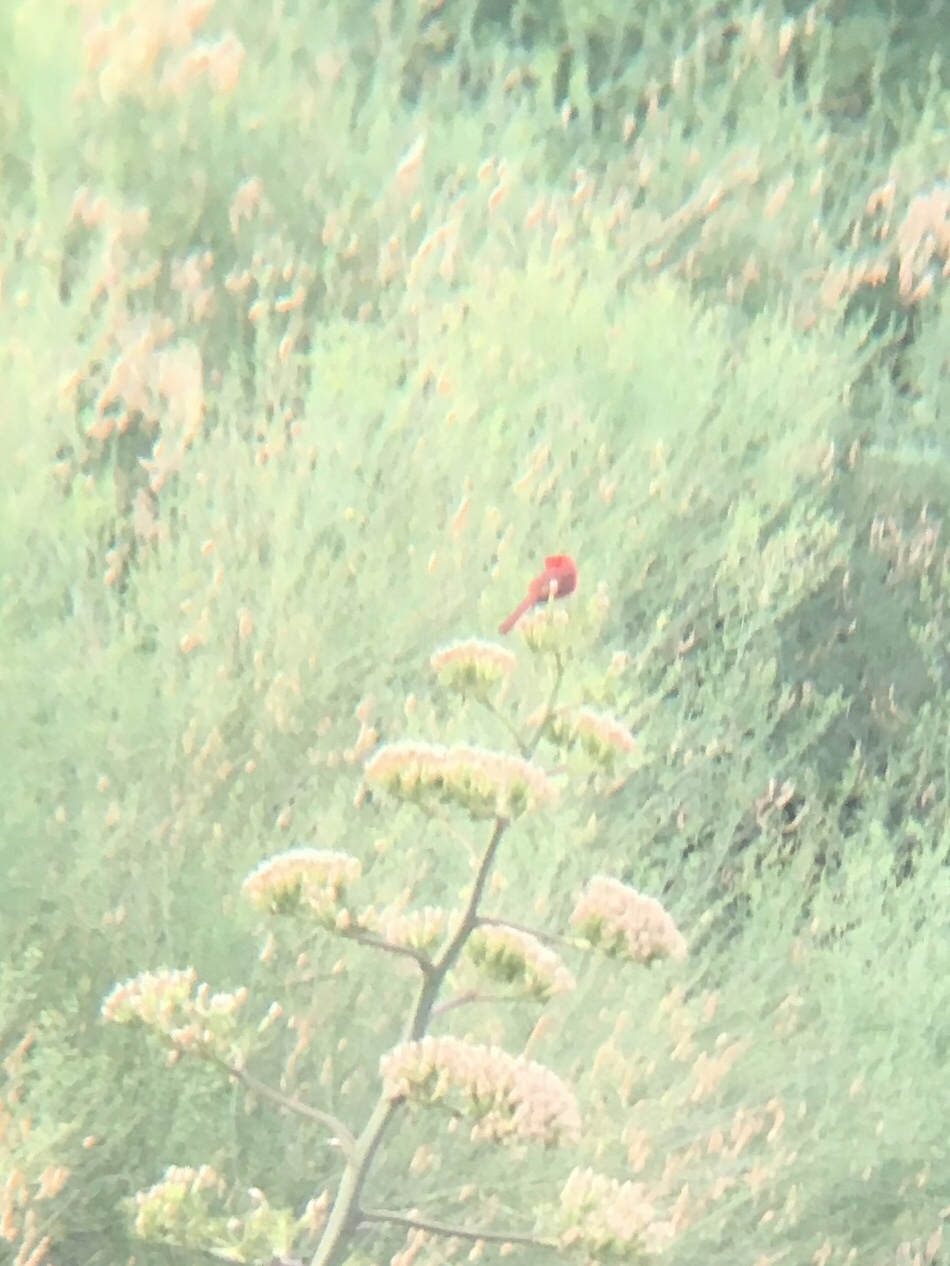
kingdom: Animalia
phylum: Chordata
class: Aves
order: Passeriformes
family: Cardinalidae
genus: Cardinalis
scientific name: Cardinalis cardinalis
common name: Northern cardinal
